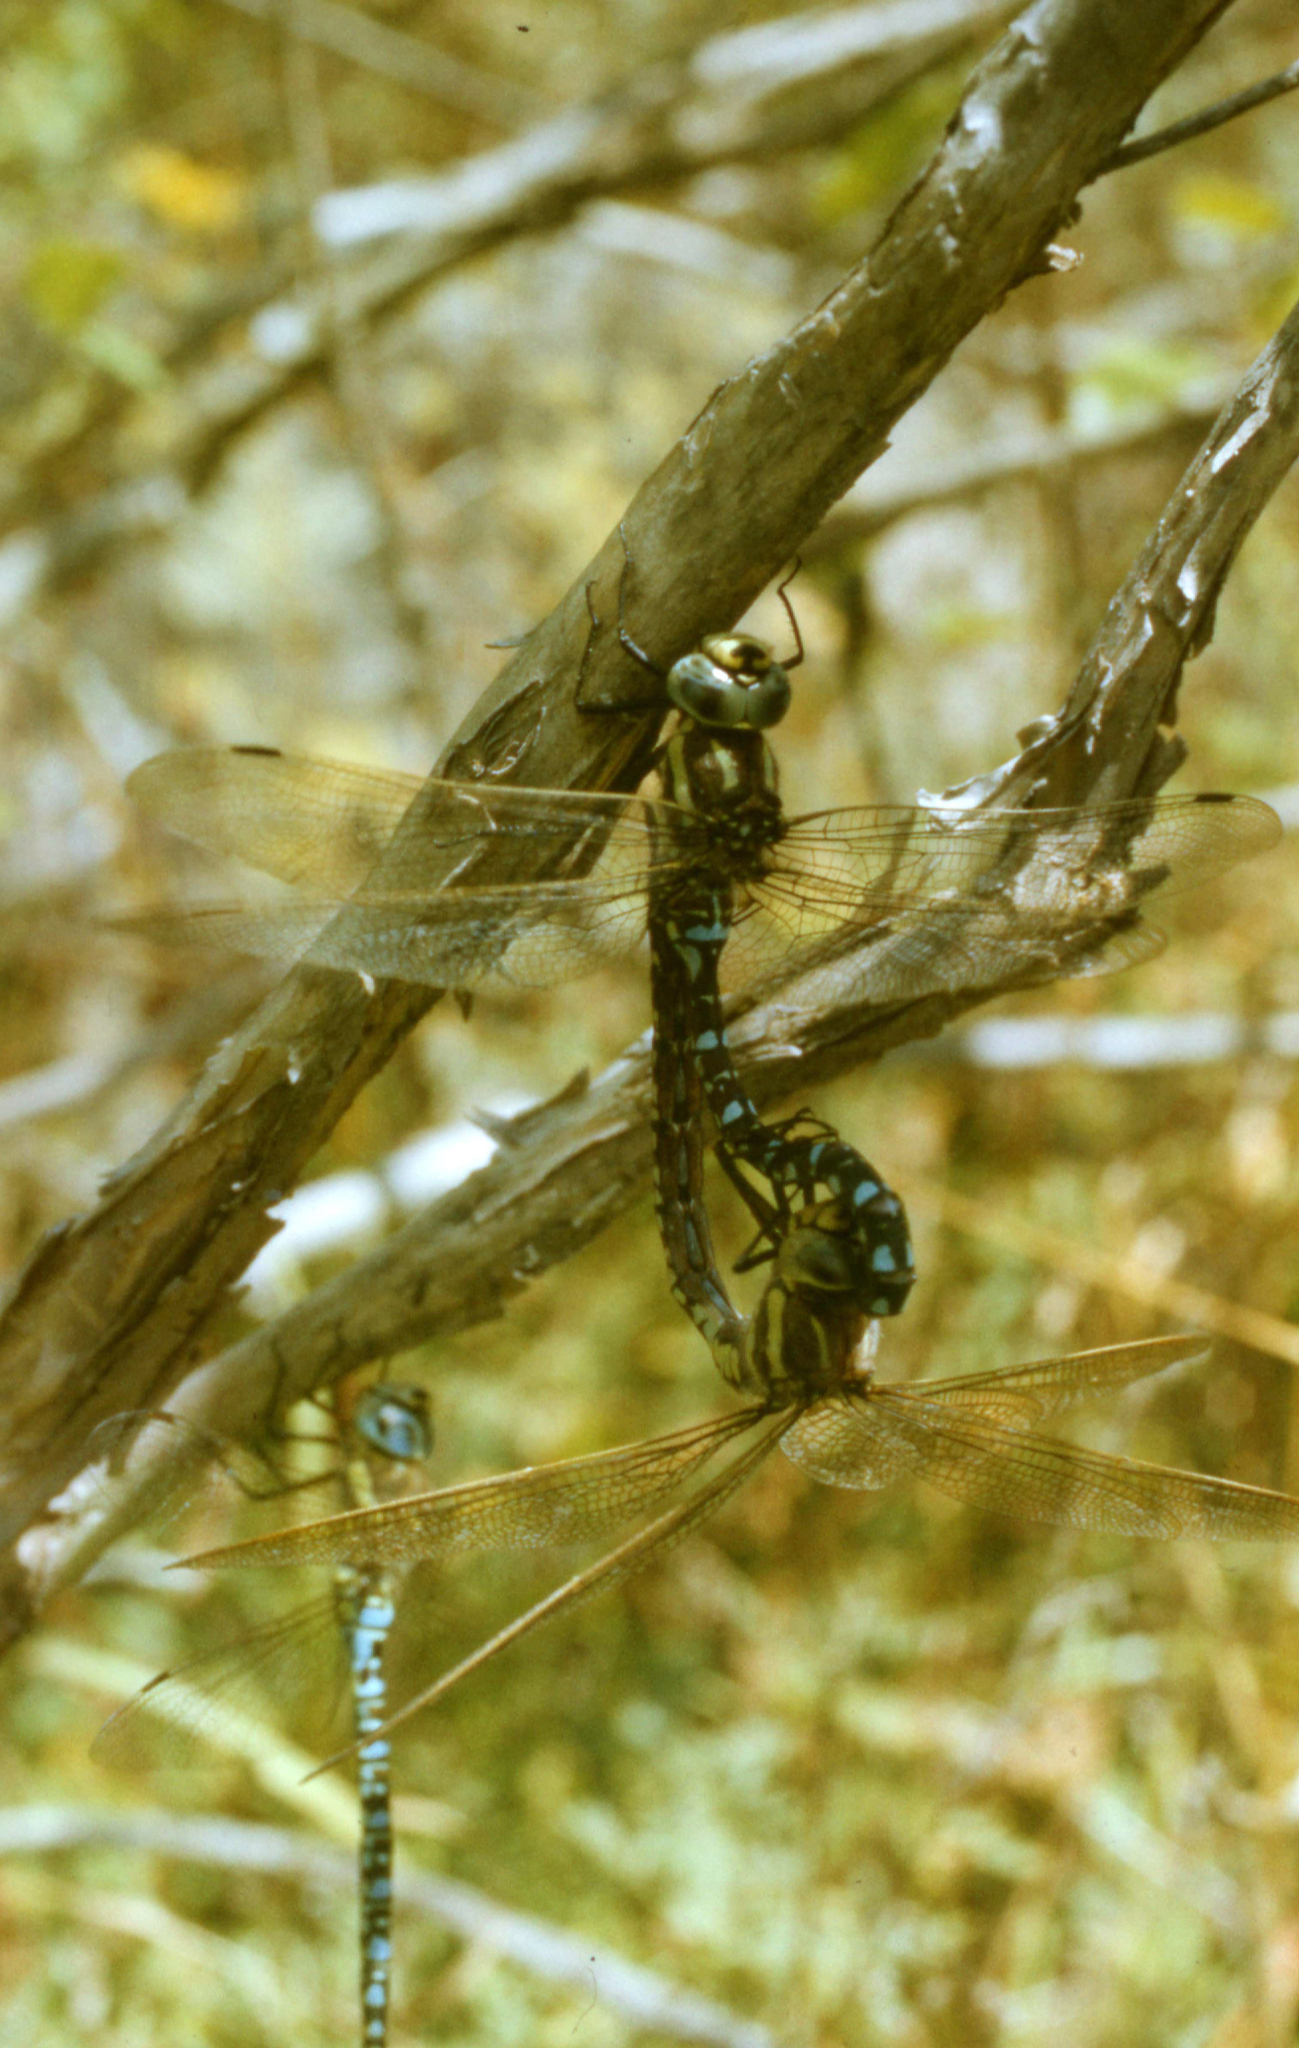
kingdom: Animalia
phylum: Arthropoda
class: Insecta
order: Odonata
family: Aeshnidae
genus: Aeshna
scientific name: Aeshna juncea
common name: Moorland hawker
